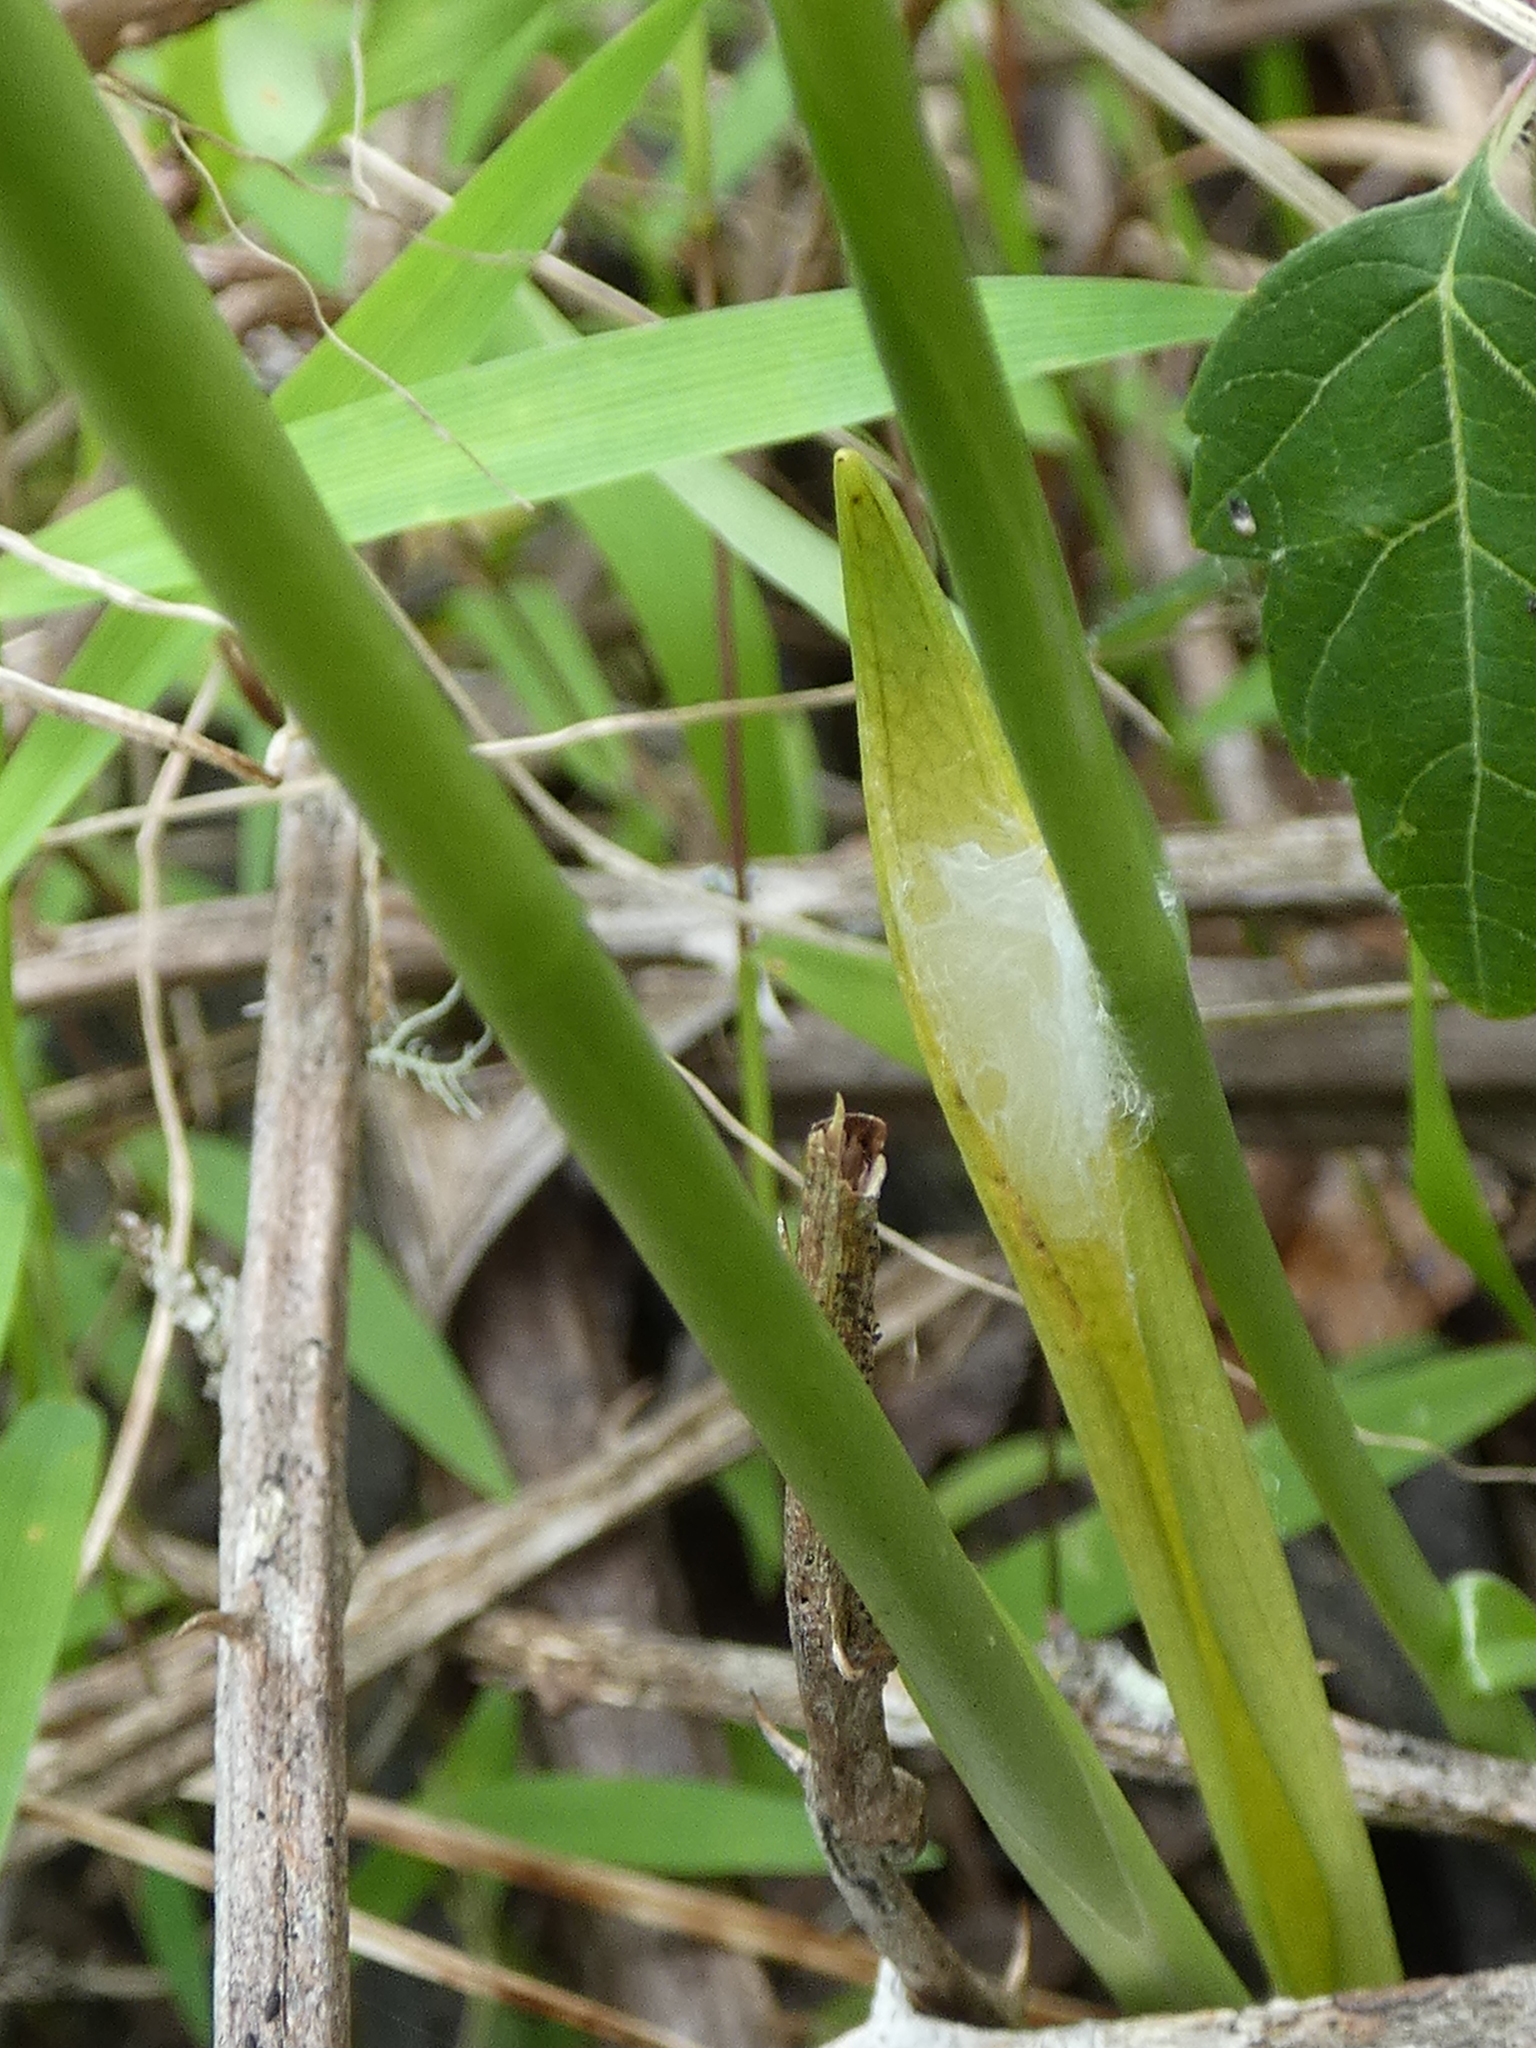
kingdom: Plantae
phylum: Tracheophyta
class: Liliopsida
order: Asparagales
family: Orchidaceae
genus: Spiranthes
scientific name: Spiranthes vernalis
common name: Spring ladies'-tresses
